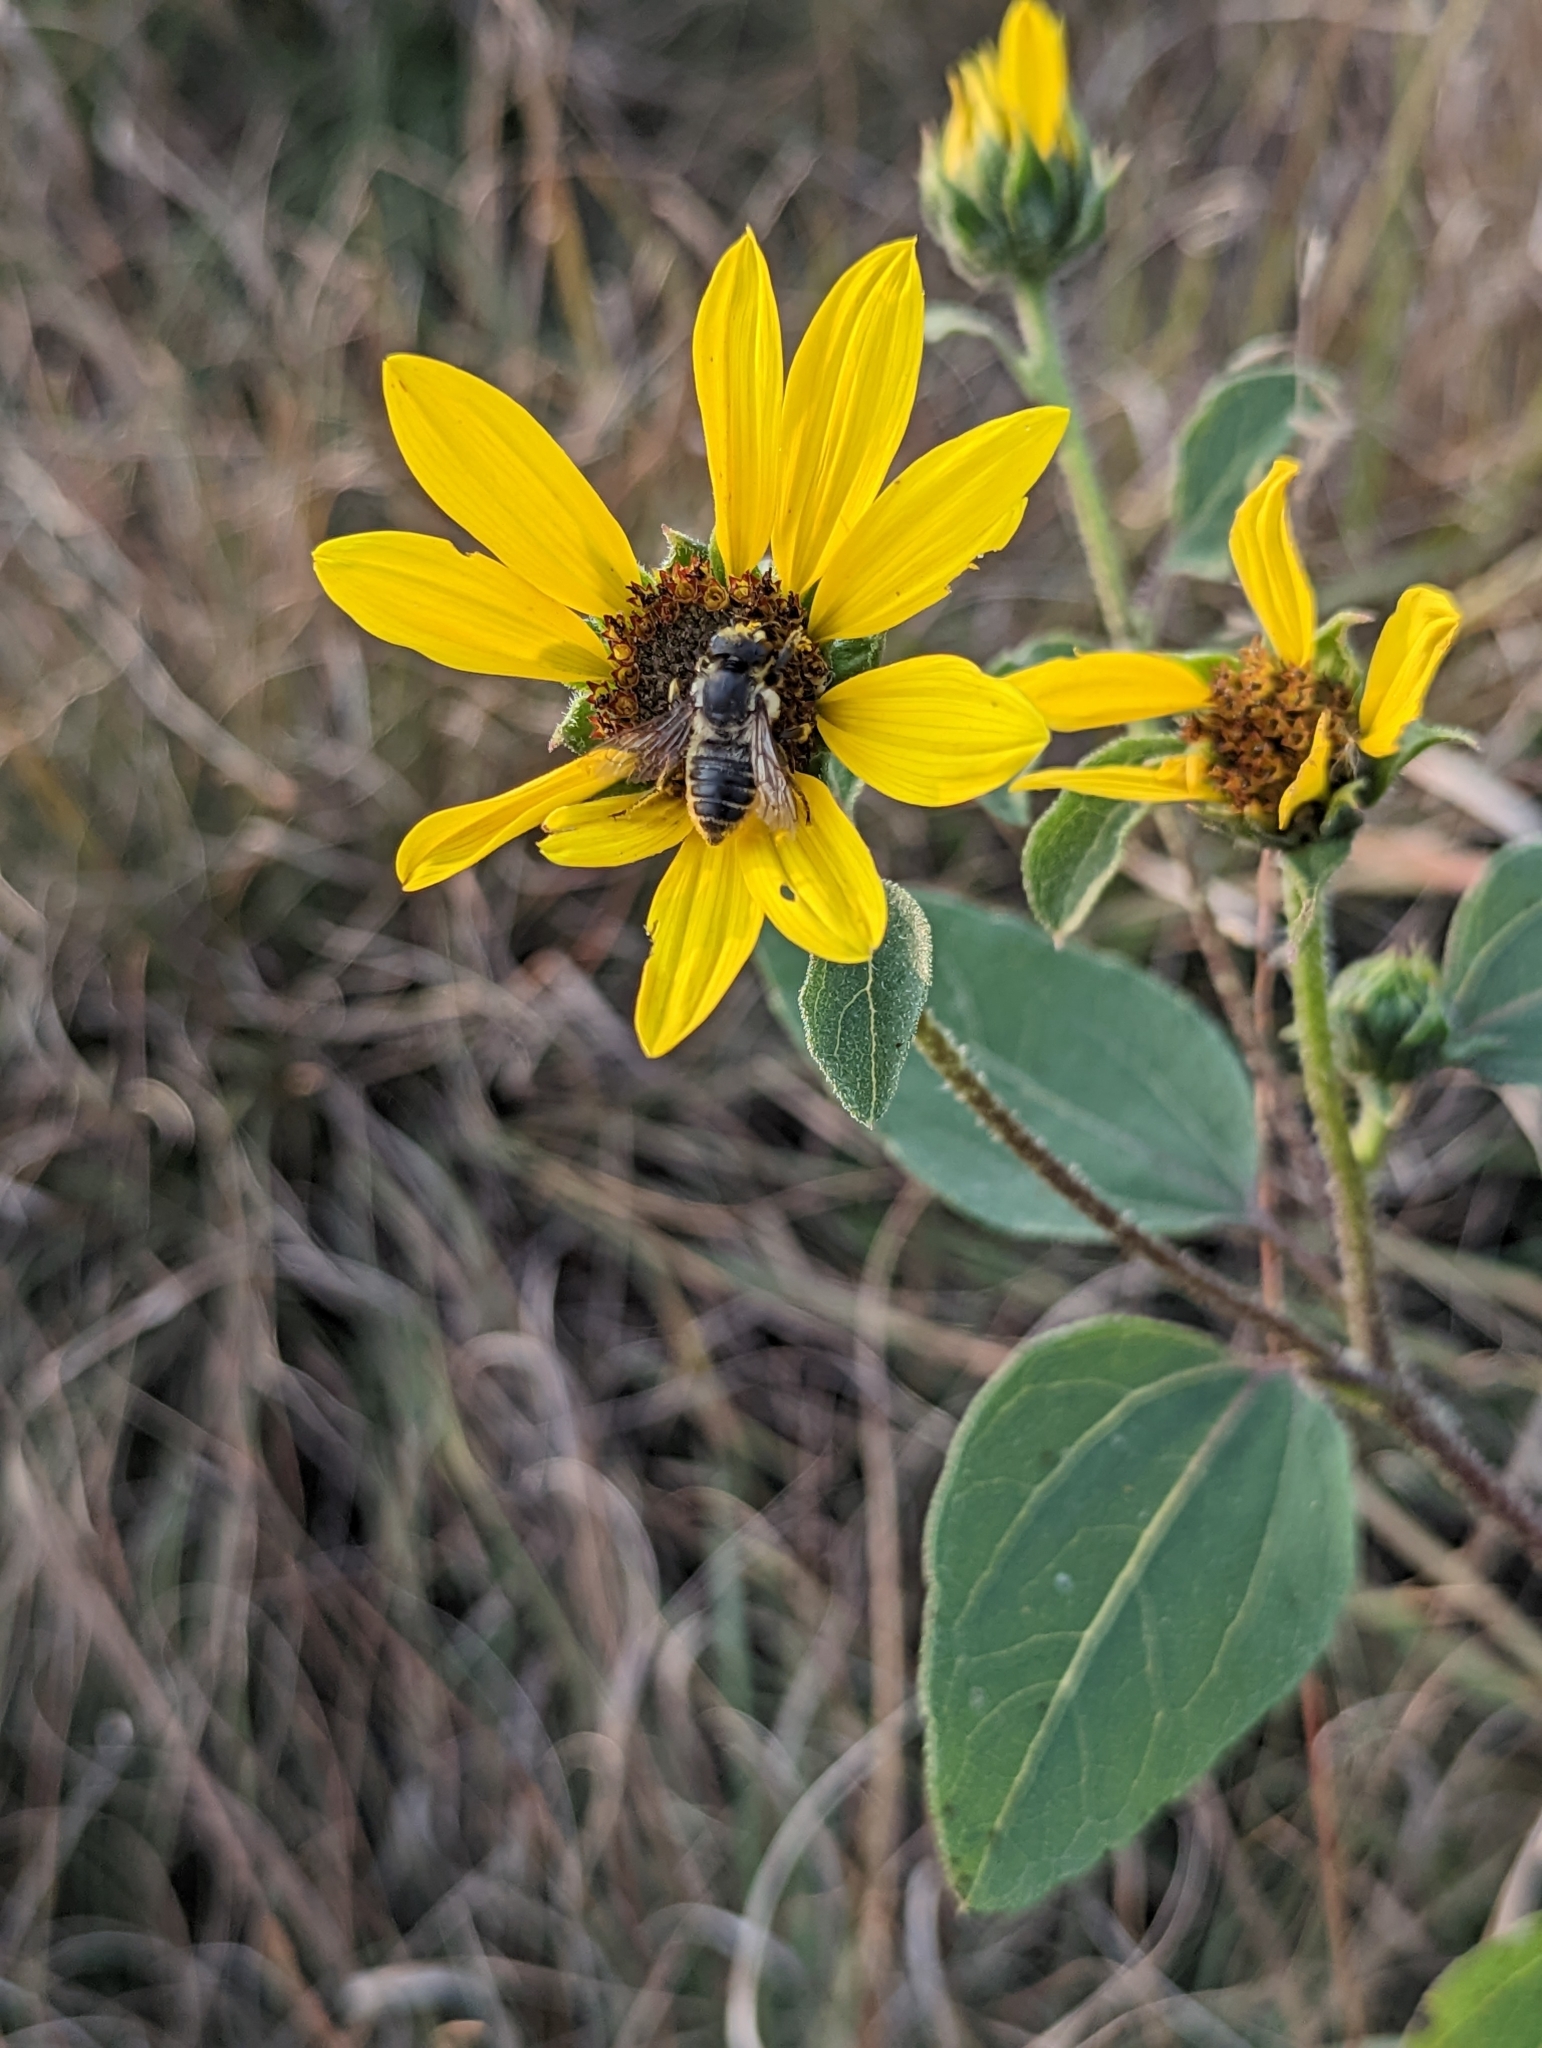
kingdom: Plantae
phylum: Tracheophyta
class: Magnoliopsida
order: Asterales
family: Asteraceae
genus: Helianthus
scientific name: Helianthus annuus
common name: Sunflower
